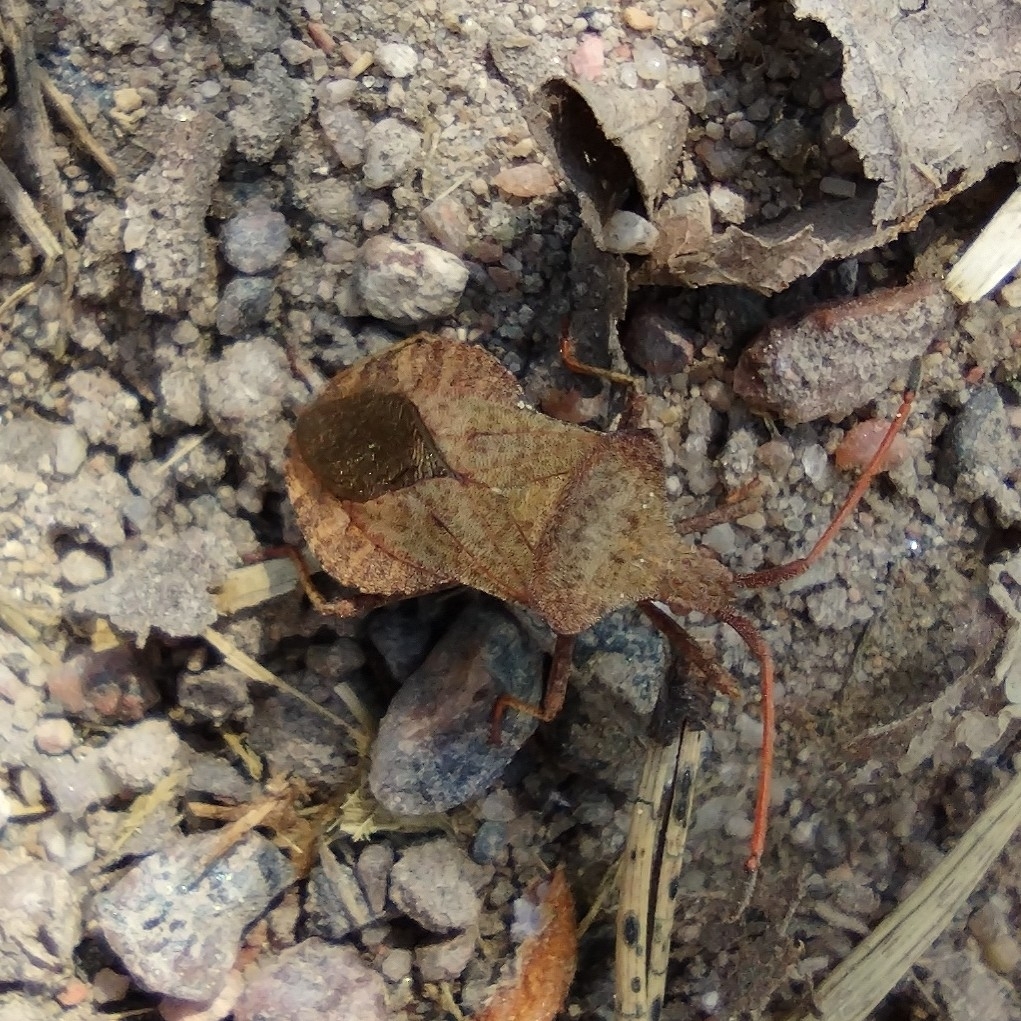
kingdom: Animalia
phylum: Arthropoda
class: Insecta
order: Hemiptera
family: Coreidae
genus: Coreus
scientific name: Coreus marginatus
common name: Dock bug
